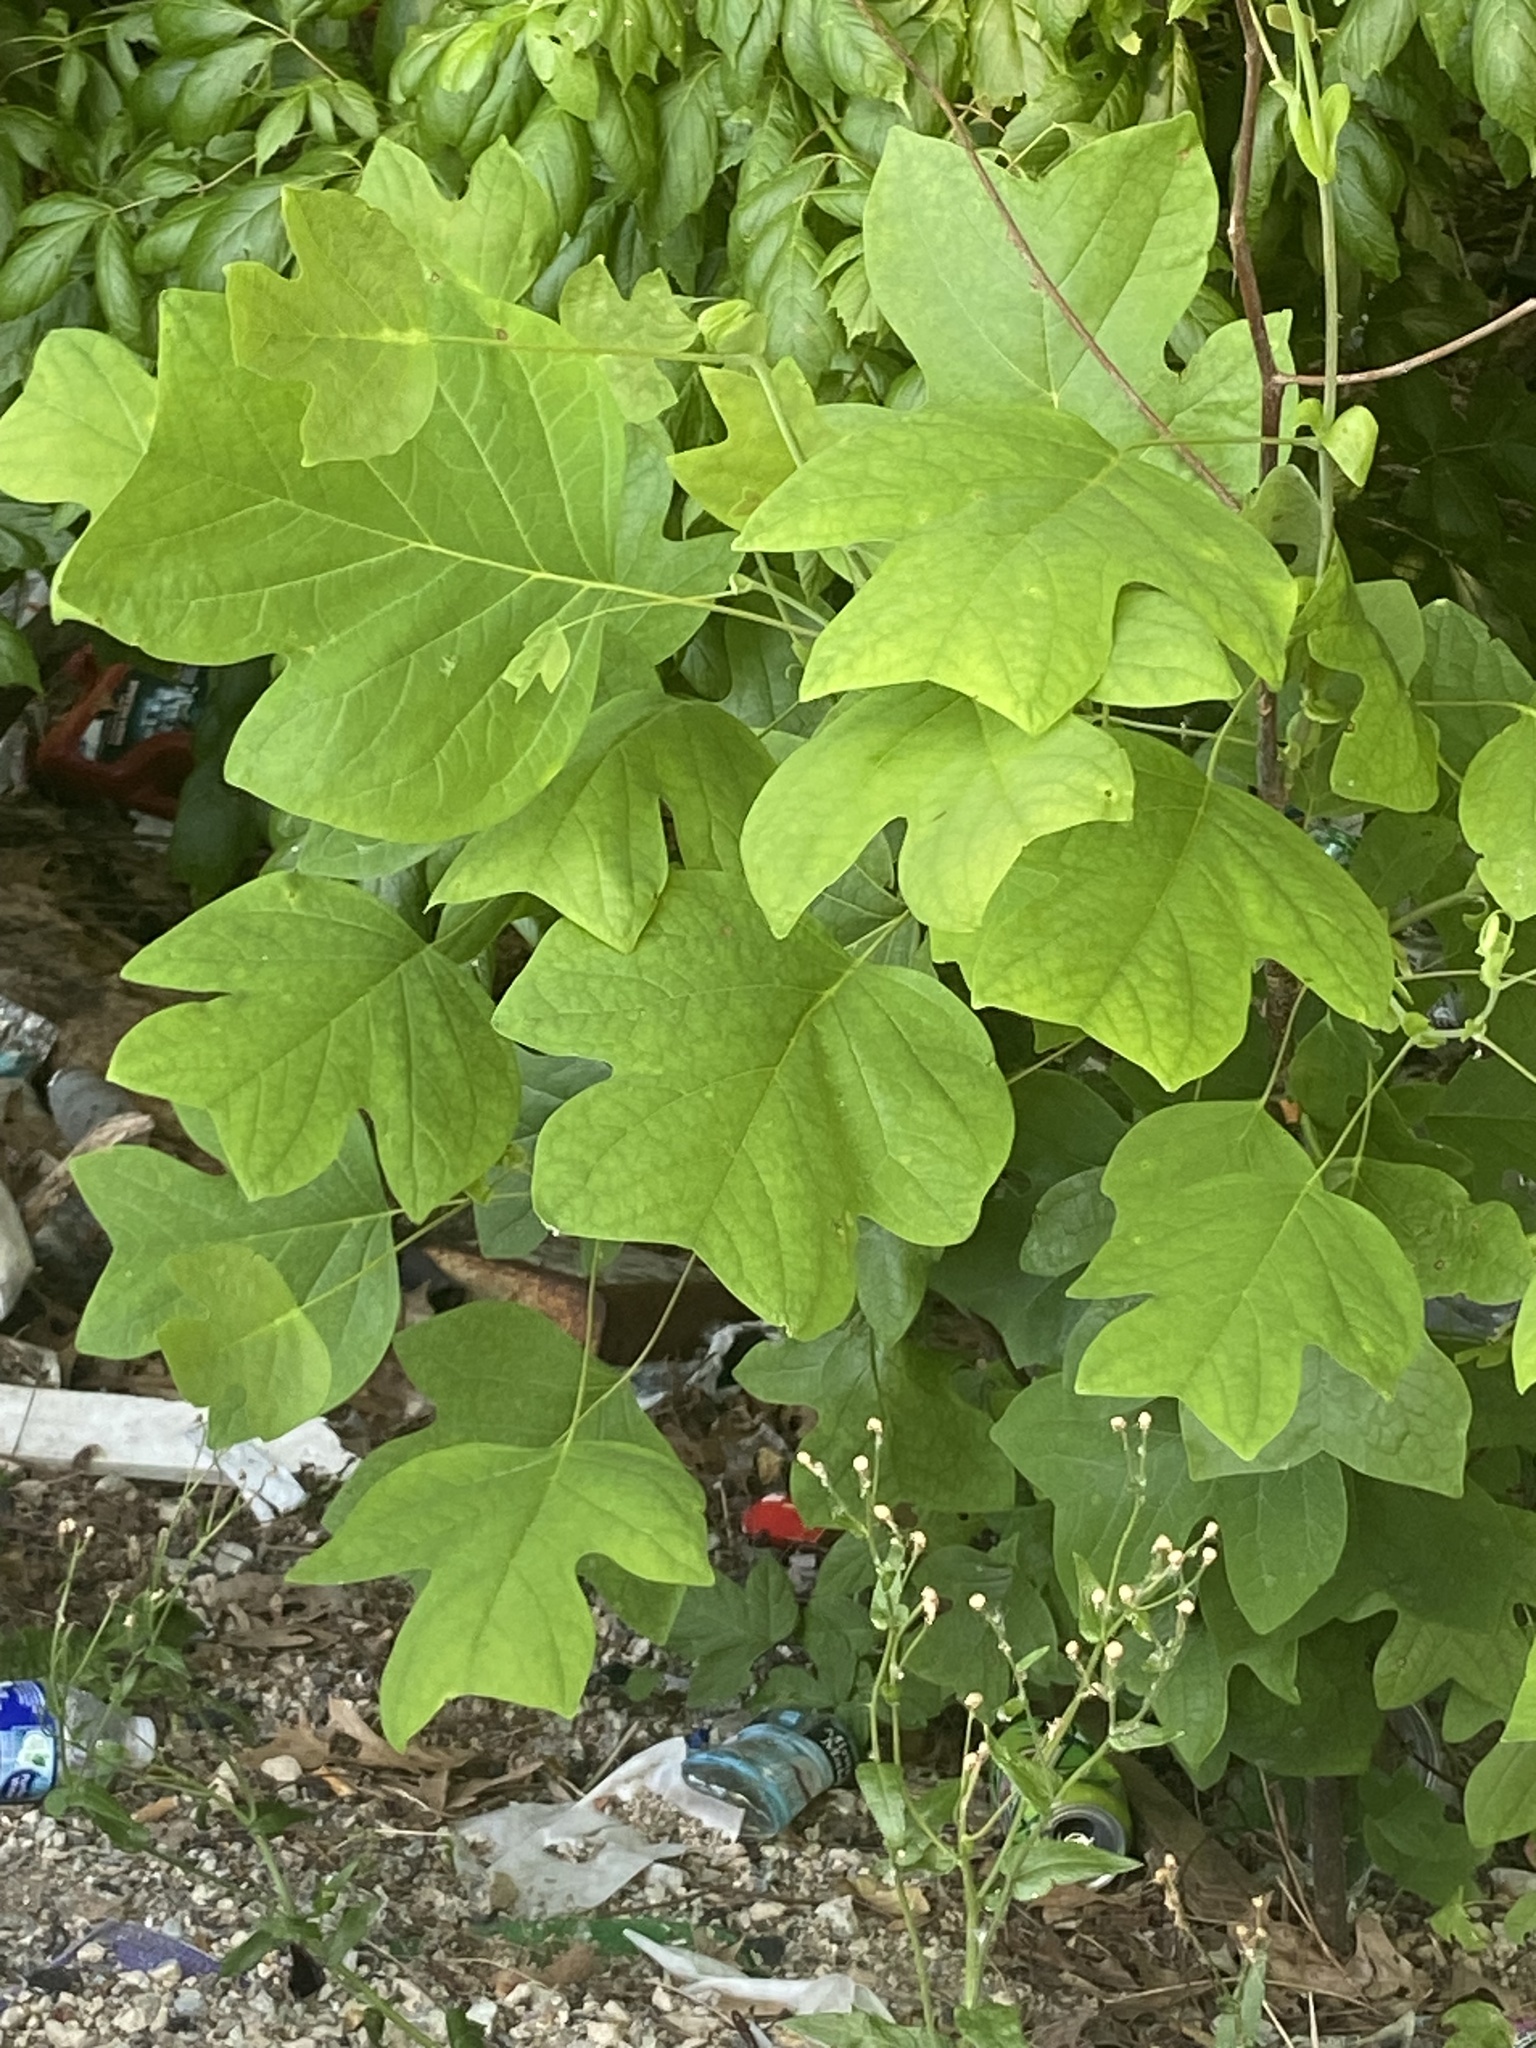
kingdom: Plantae
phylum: Tracheophyta
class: Magnoliopsida
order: Magnoliales
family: Magnoliaceae
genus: Liriodendron
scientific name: Liriodendron tulipifera
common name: Tulip tree
